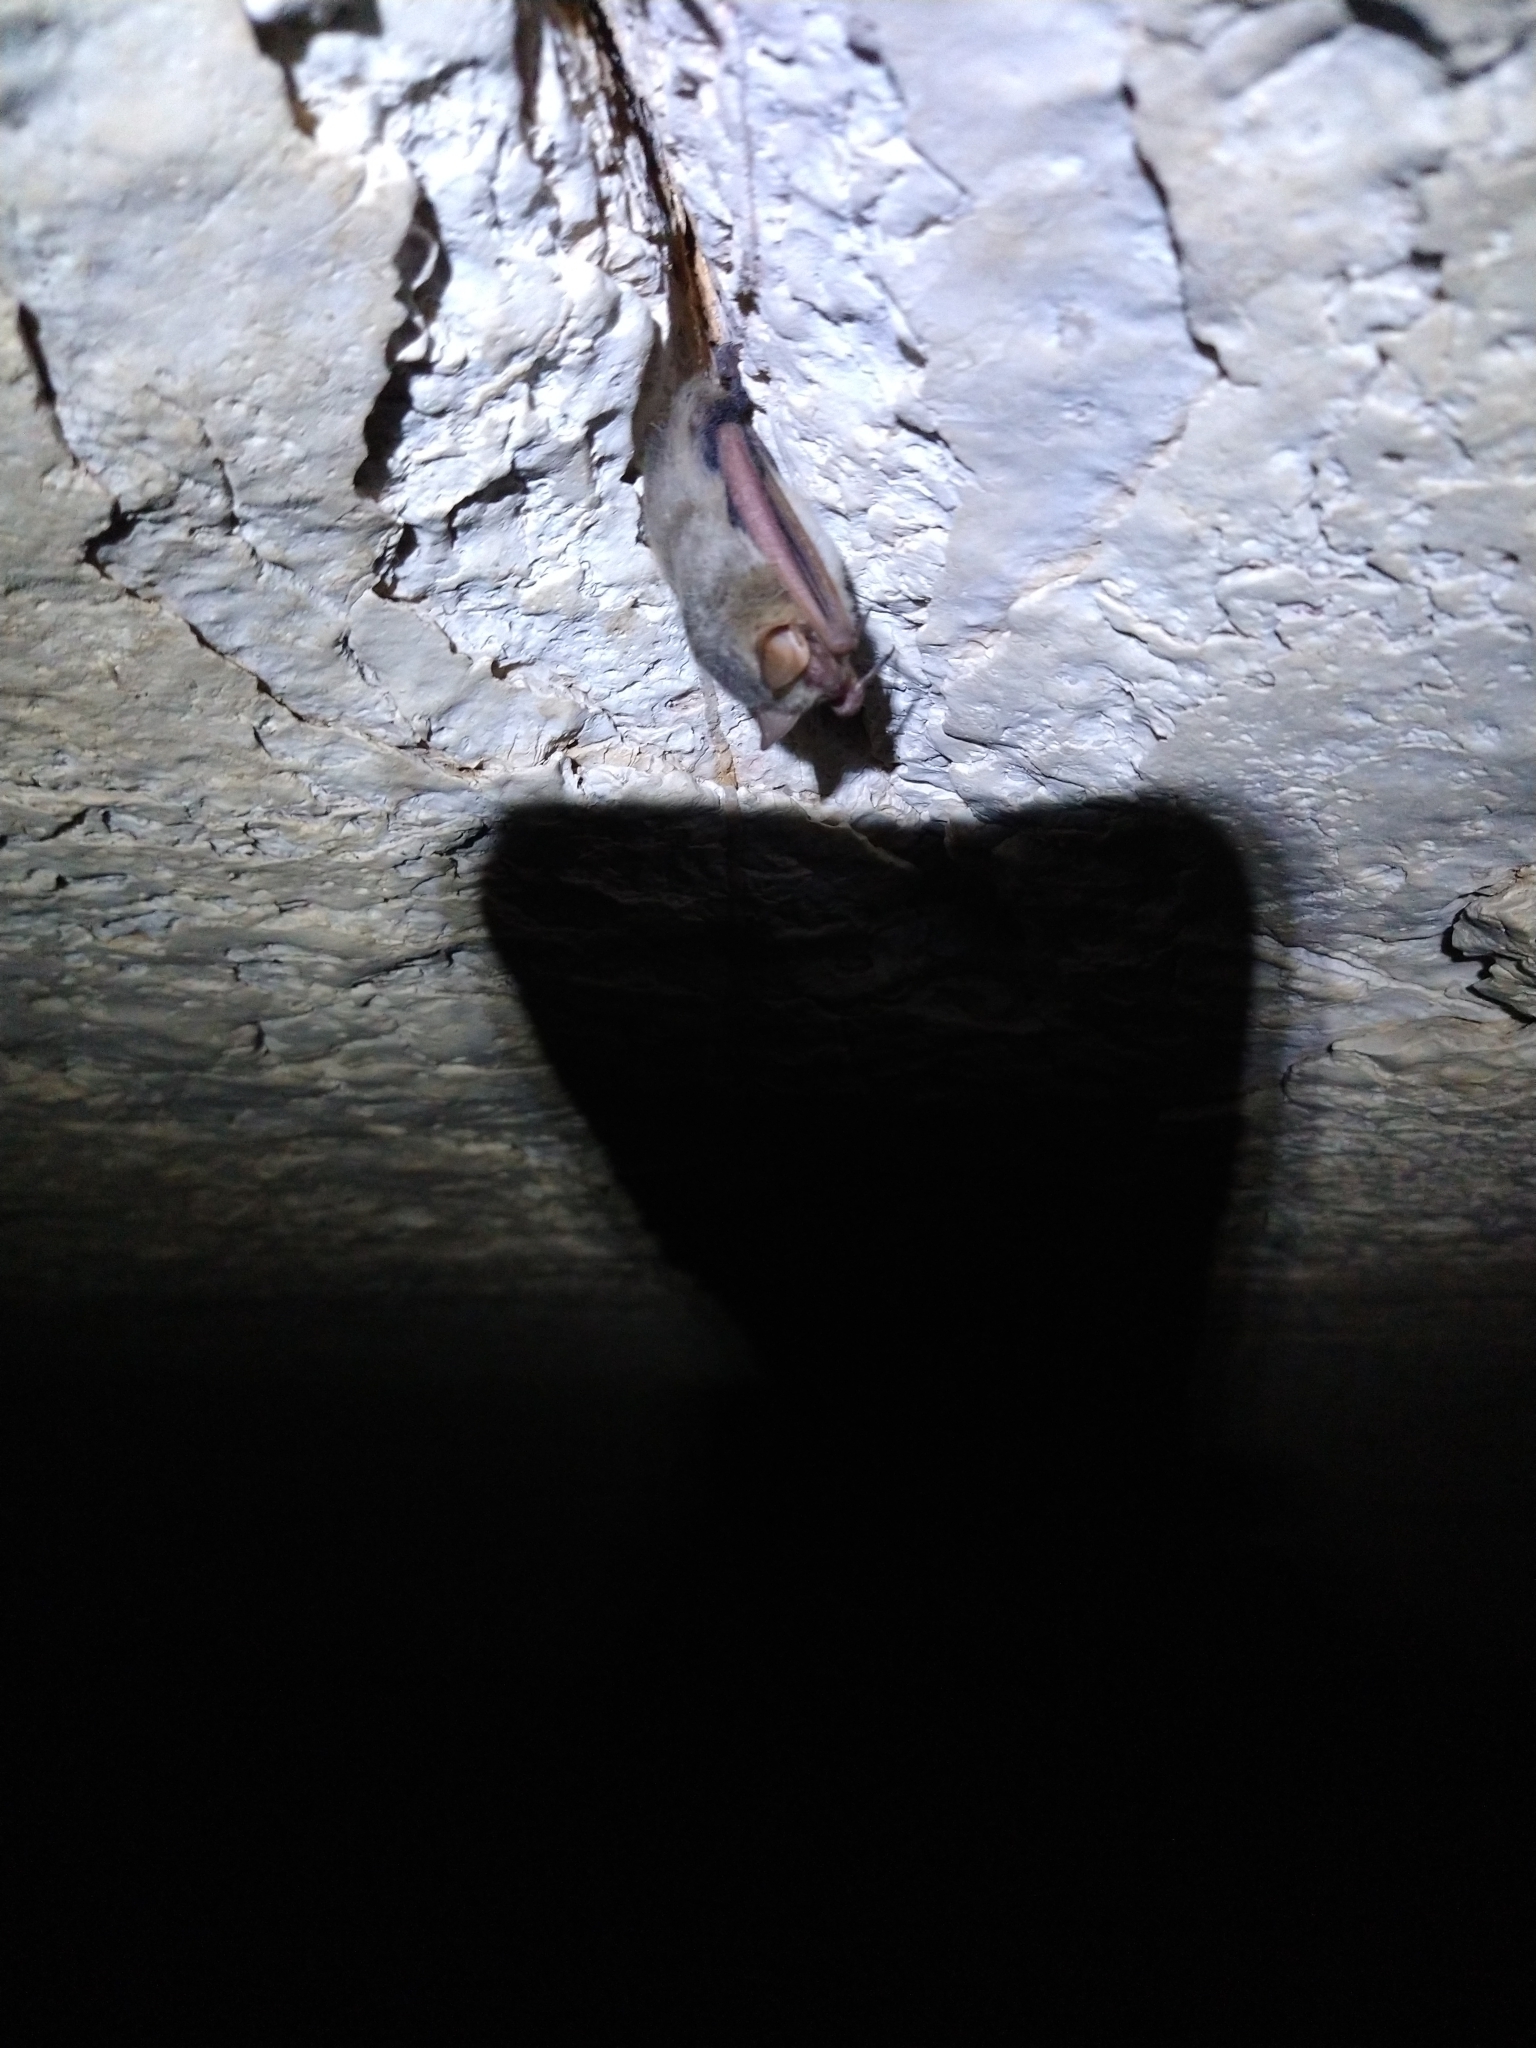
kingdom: Animalia
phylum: Chordata
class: Mammalia
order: Chiroptera
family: Vespertilionidae
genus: Perimyotis
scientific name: Perimyotis subflavus
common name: Eastern pipistrelle
